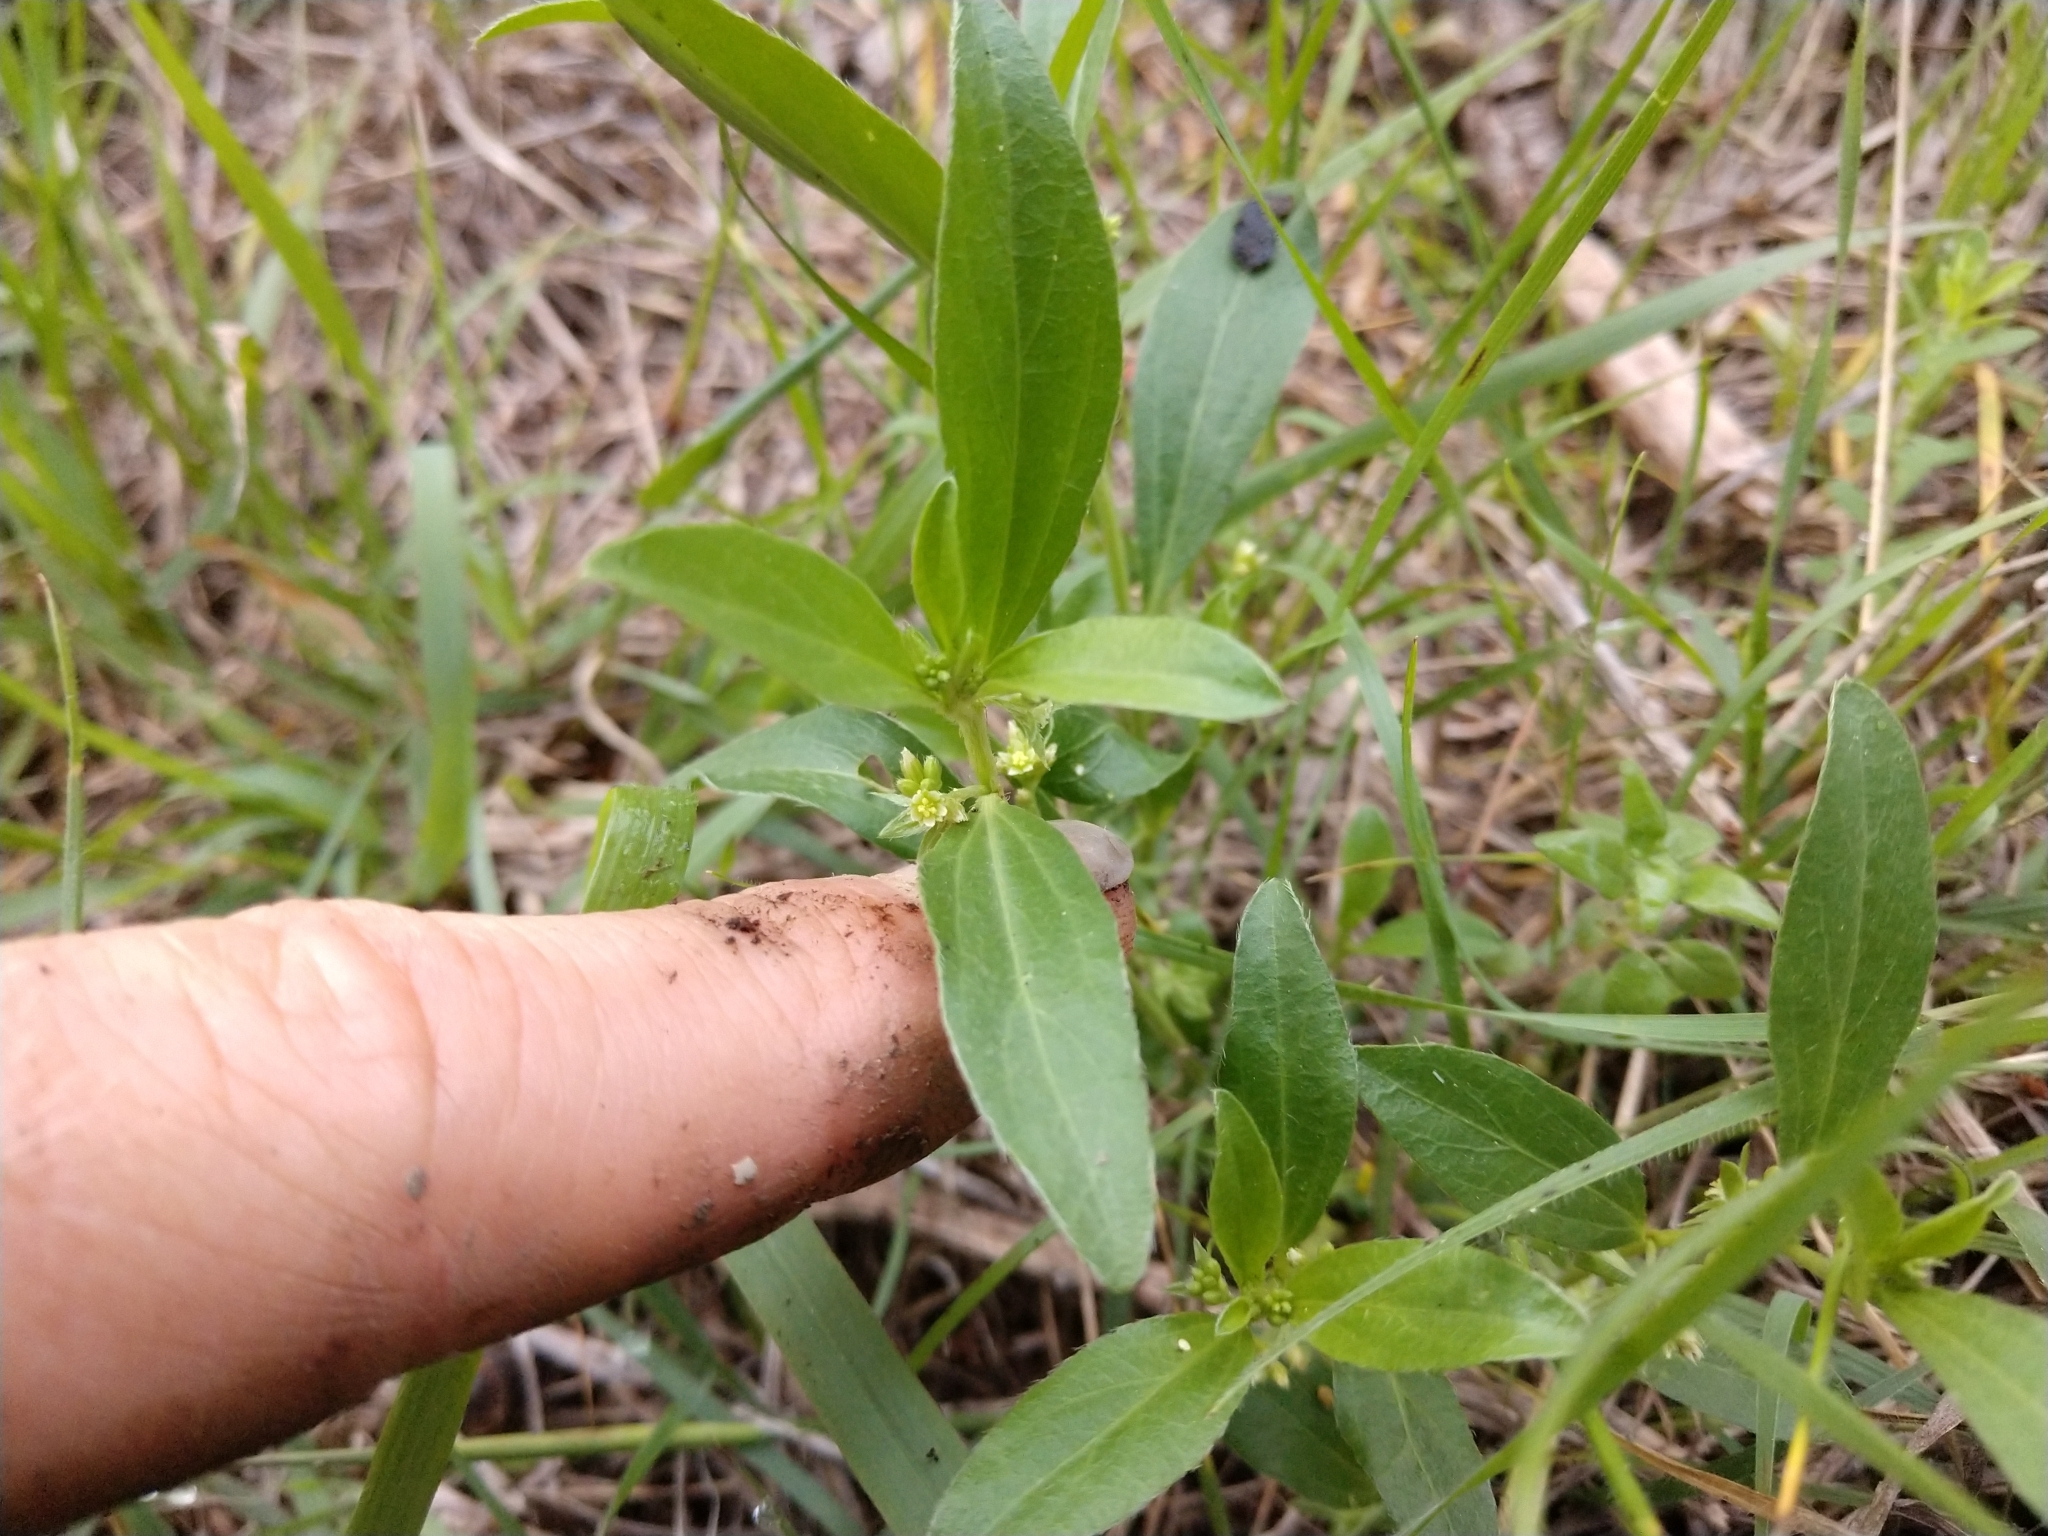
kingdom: Plantae
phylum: Tracheophyta
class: Magnoliopsida
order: Malpighiales
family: Euphorbiaceae
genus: Ditaxis
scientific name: Ditaxis humilis
